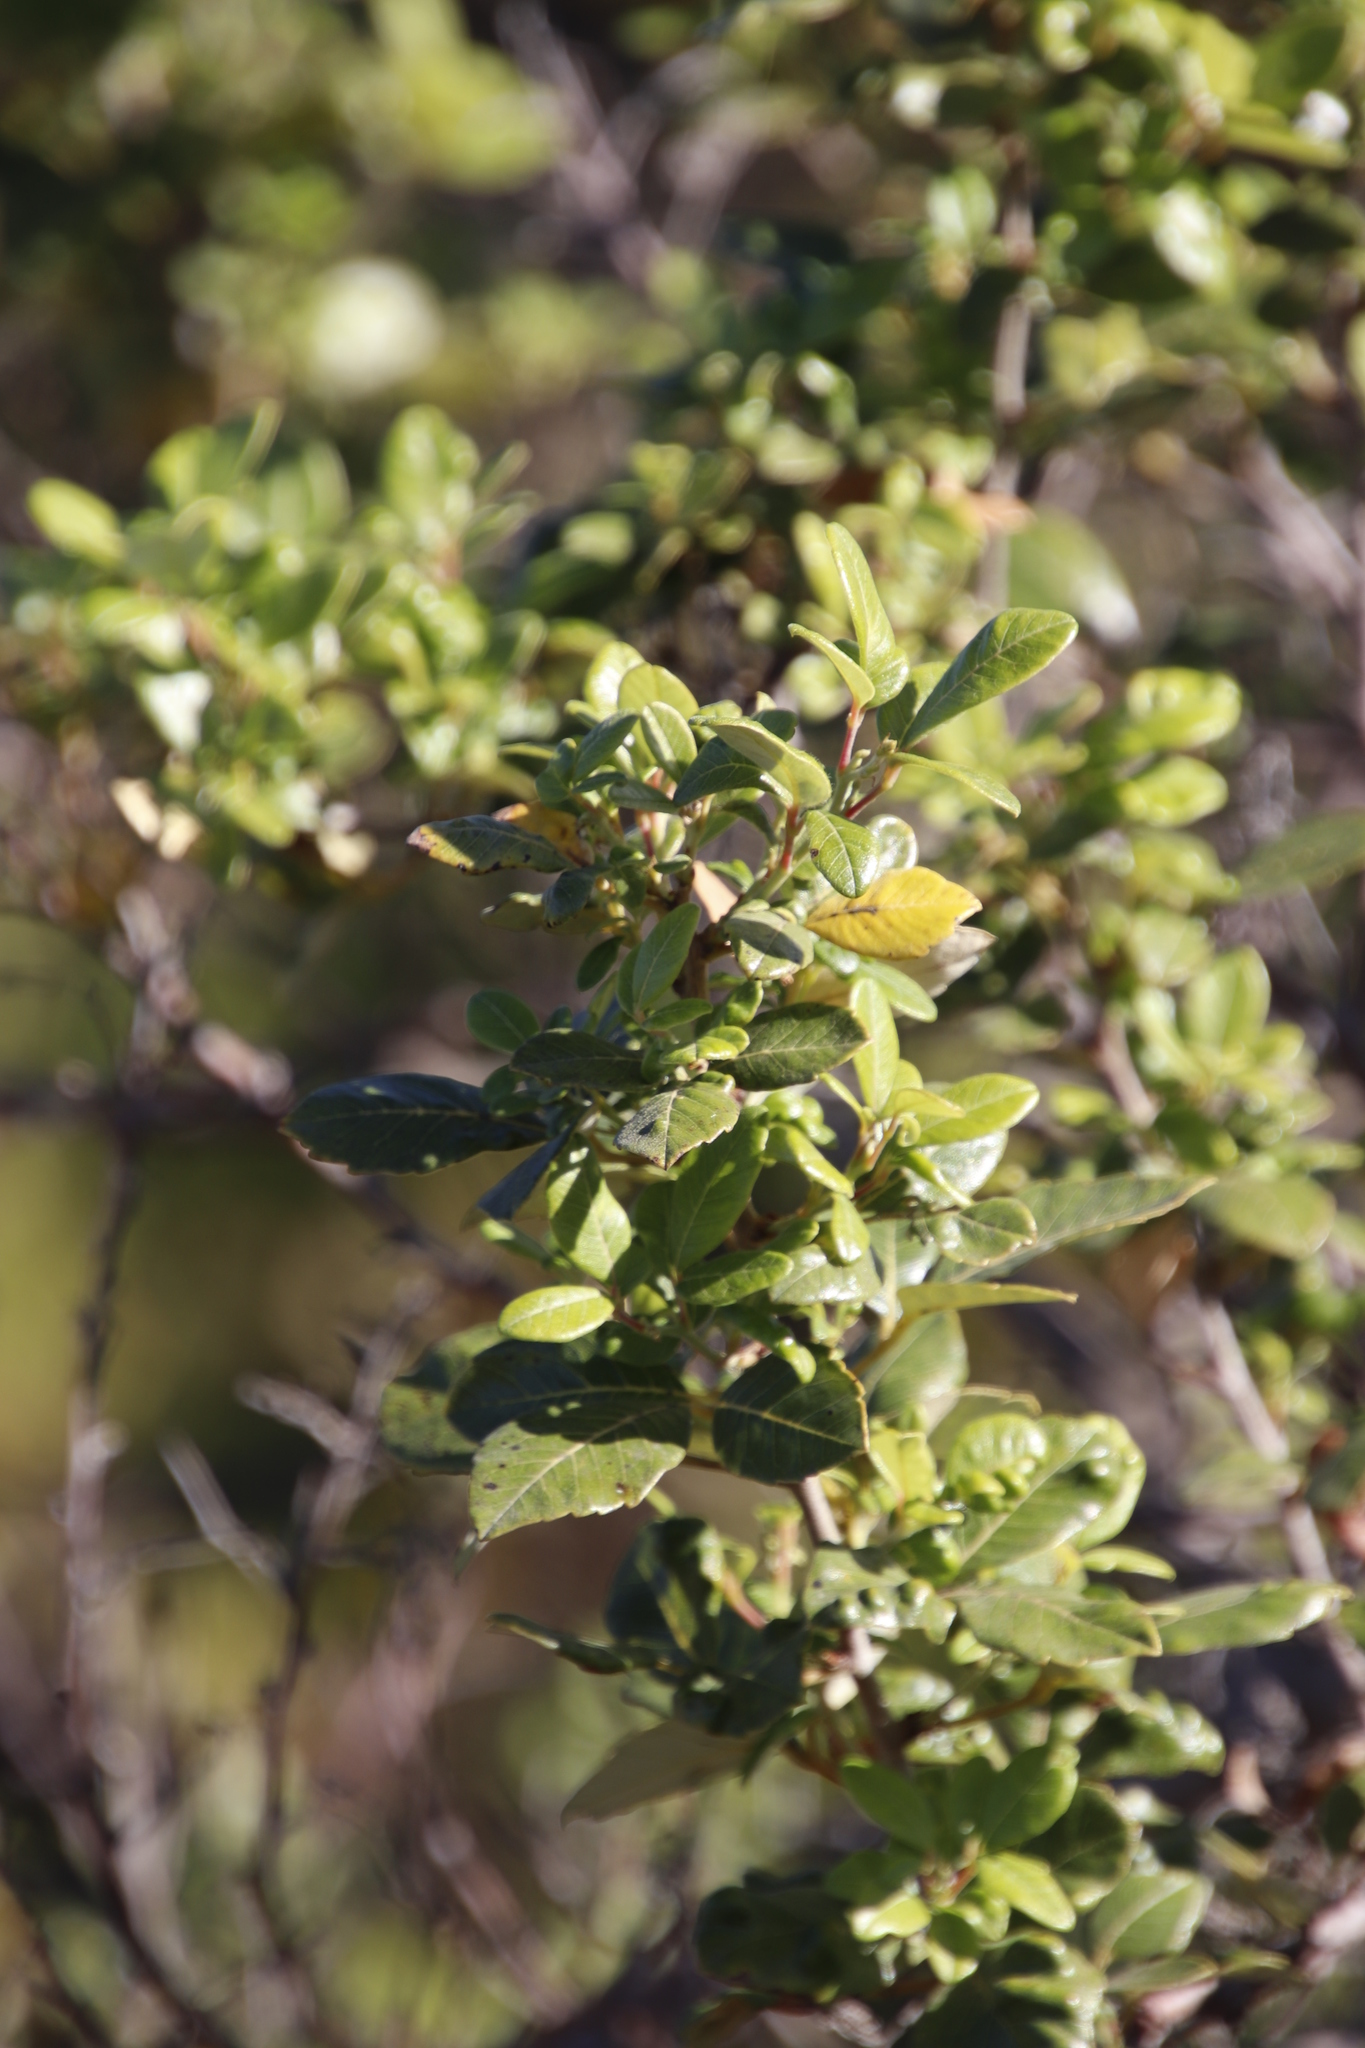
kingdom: Plantae
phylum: Tracheophyta
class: Magnoliopsida
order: Sapindales
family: Anacardiaceae
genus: Searsia
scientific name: Searsia tomentosa
